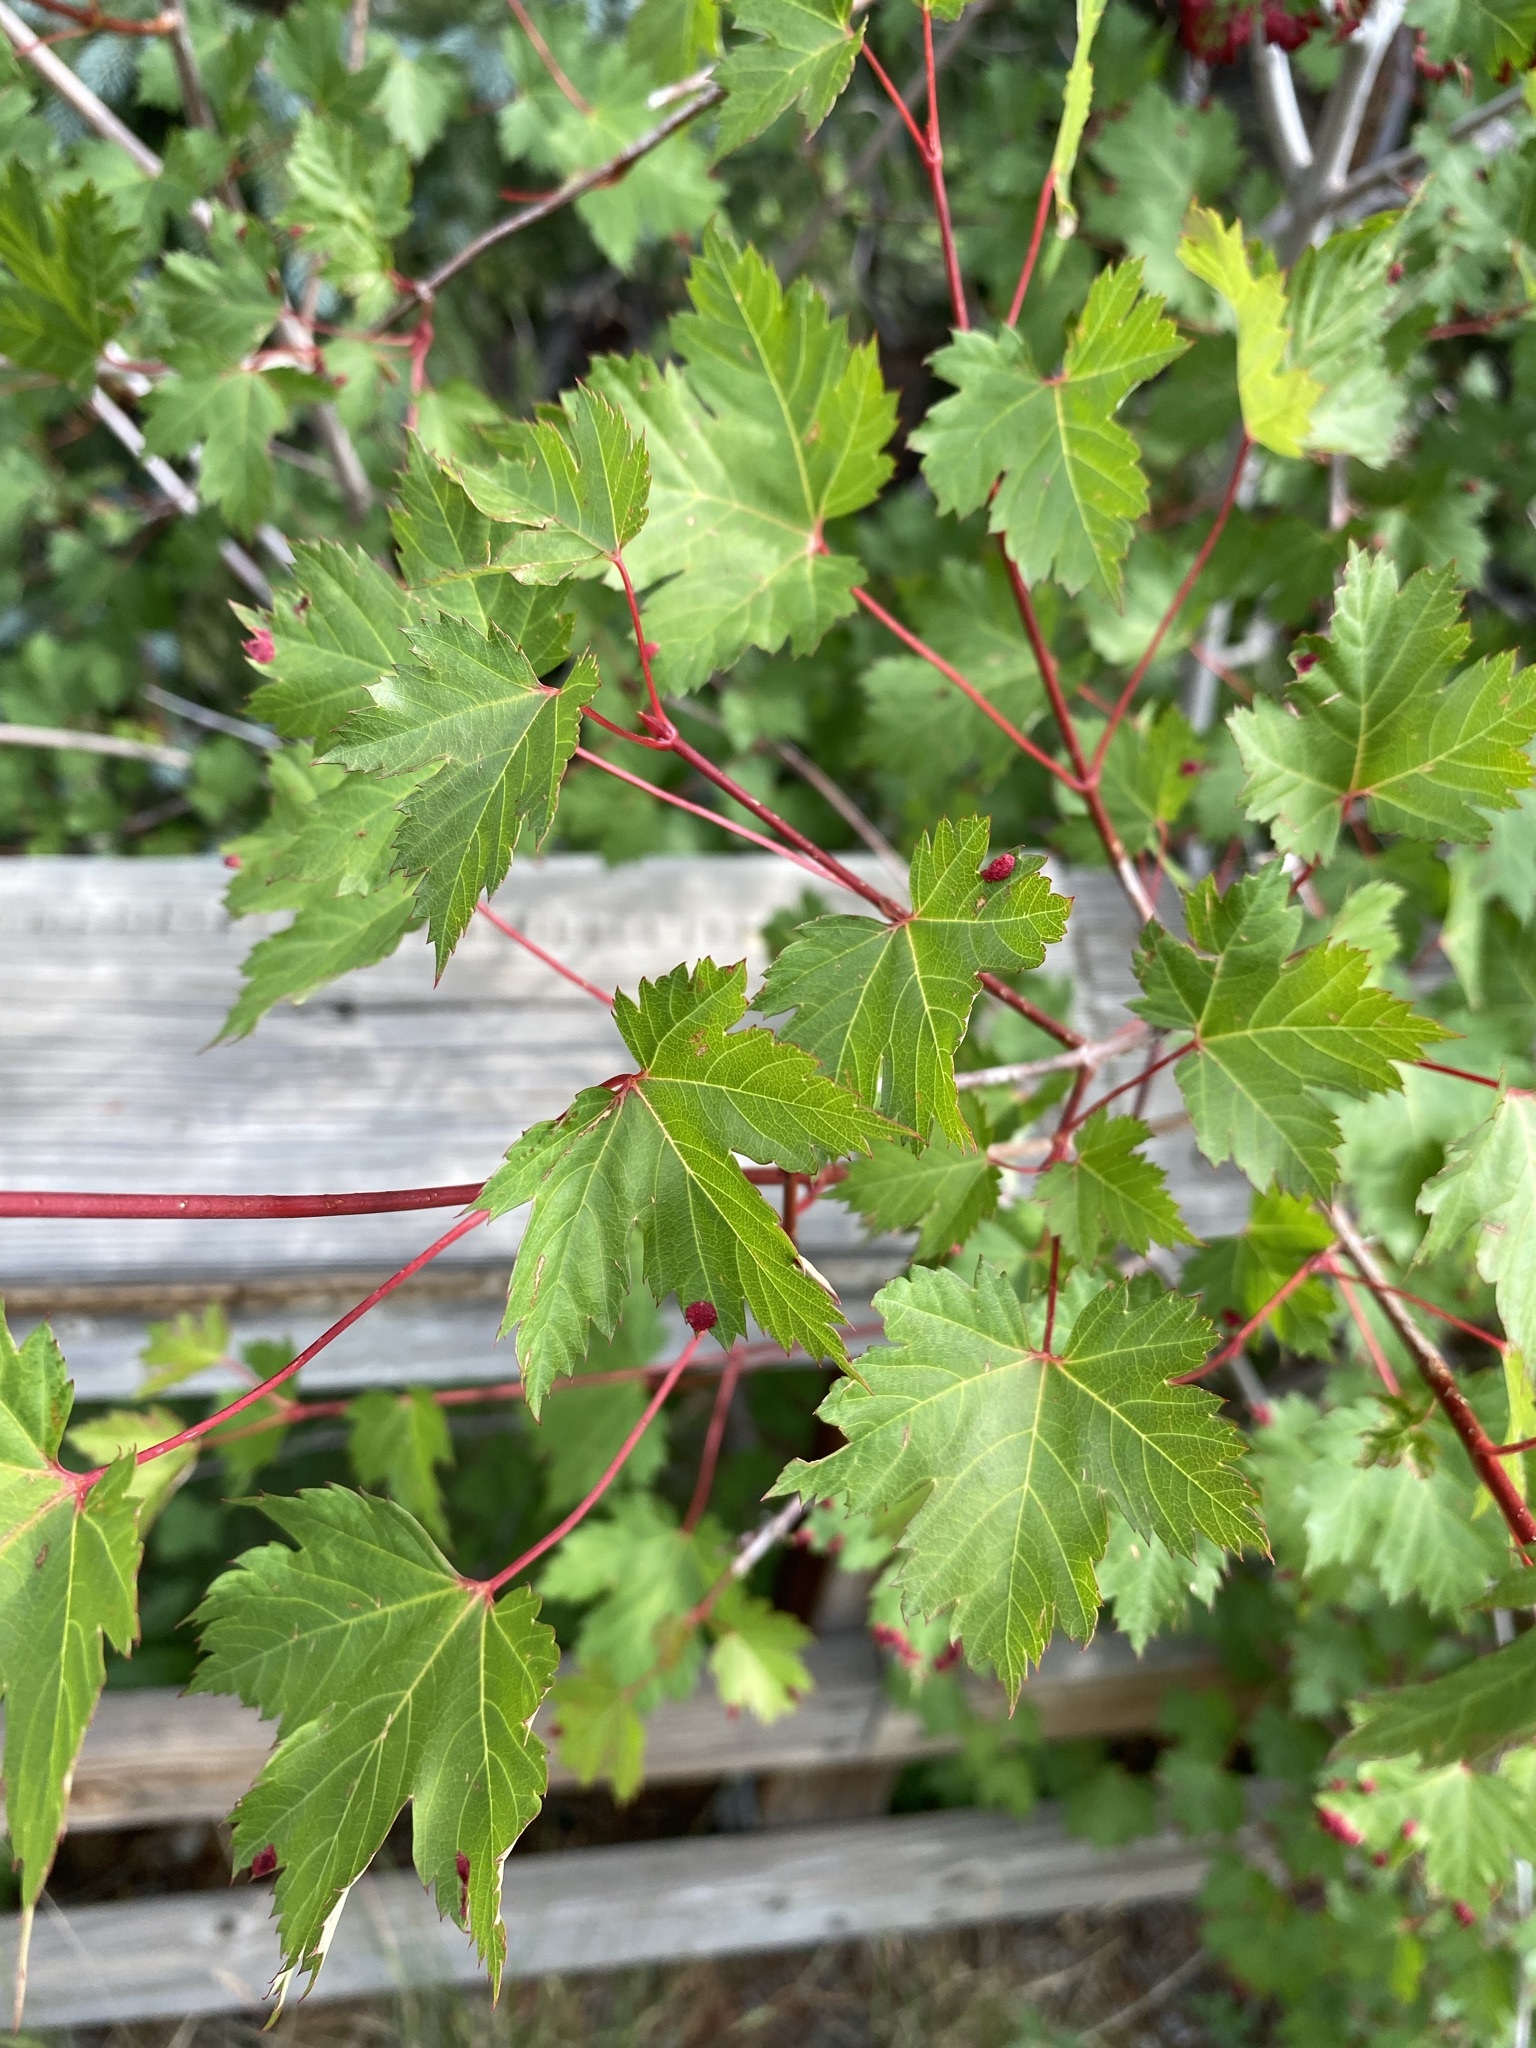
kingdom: Plantae
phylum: Tracheophyta
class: Magnoliopsida
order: Sapindales
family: Sapindaceae
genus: Acer
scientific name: Acer glabrum
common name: Rocky mountain maple
